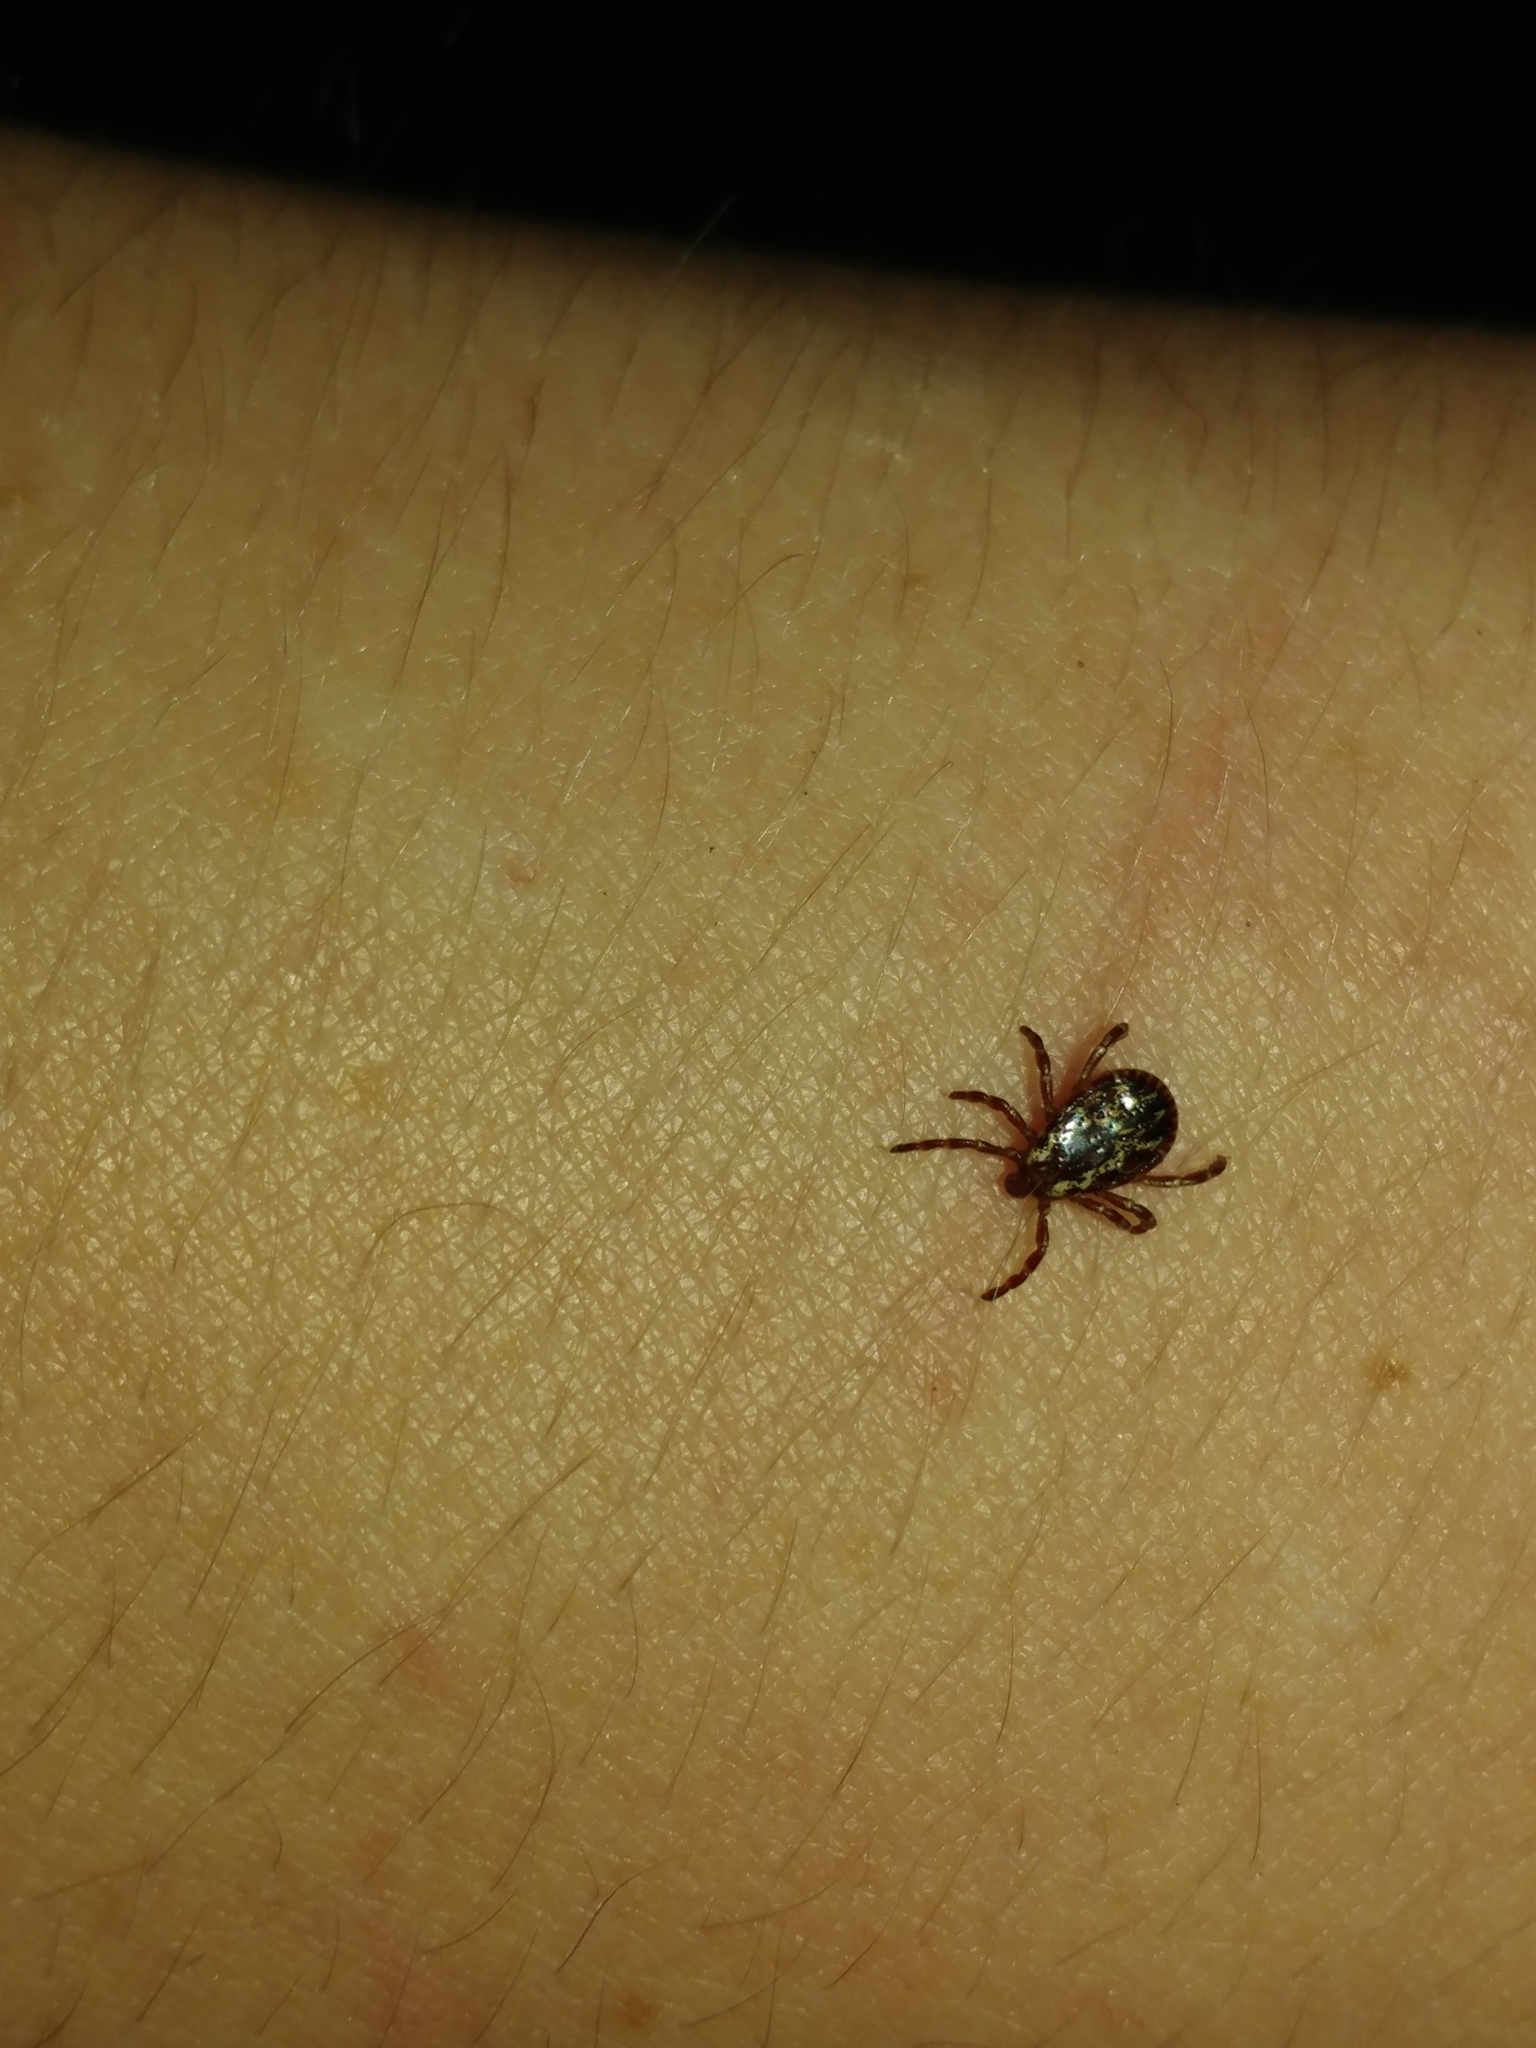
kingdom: Animalia
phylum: Arthropoda
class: Arachnida
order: Ixodida
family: Ixodidae
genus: Dermacentor
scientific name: Dermacentor variabilis
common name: American dog tick
